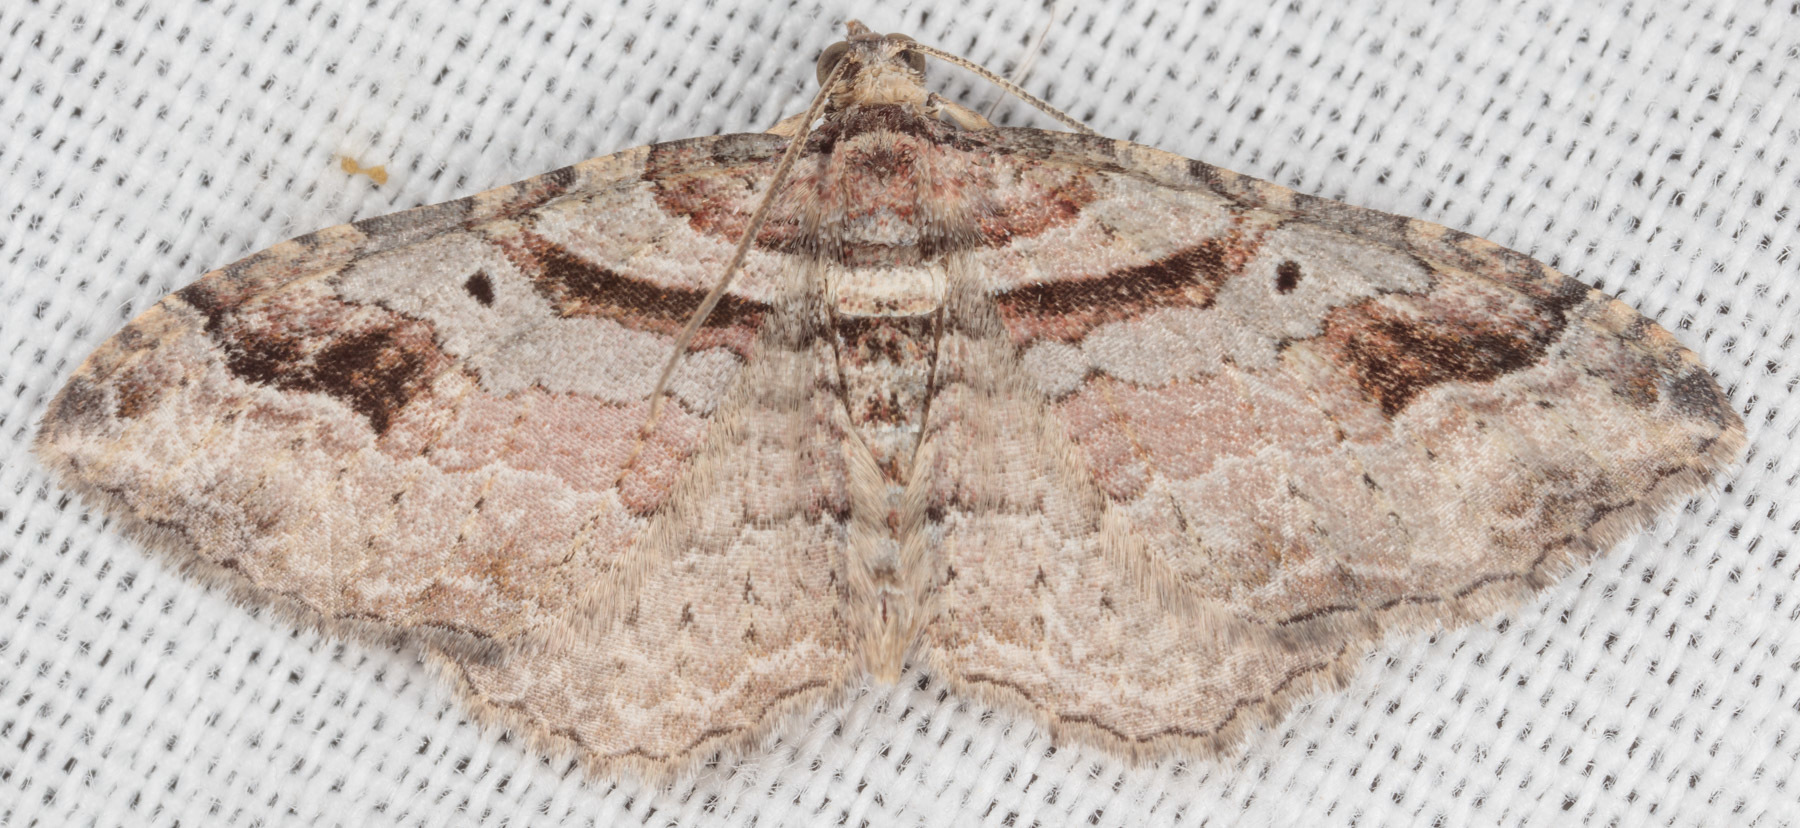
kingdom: Animalia
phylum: Arthropoda
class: Insecta
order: Lepidoptera
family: Geometridae
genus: Costaconvexa
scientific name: Costaconvexa centrostrigaria
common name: Bent-line carpet
